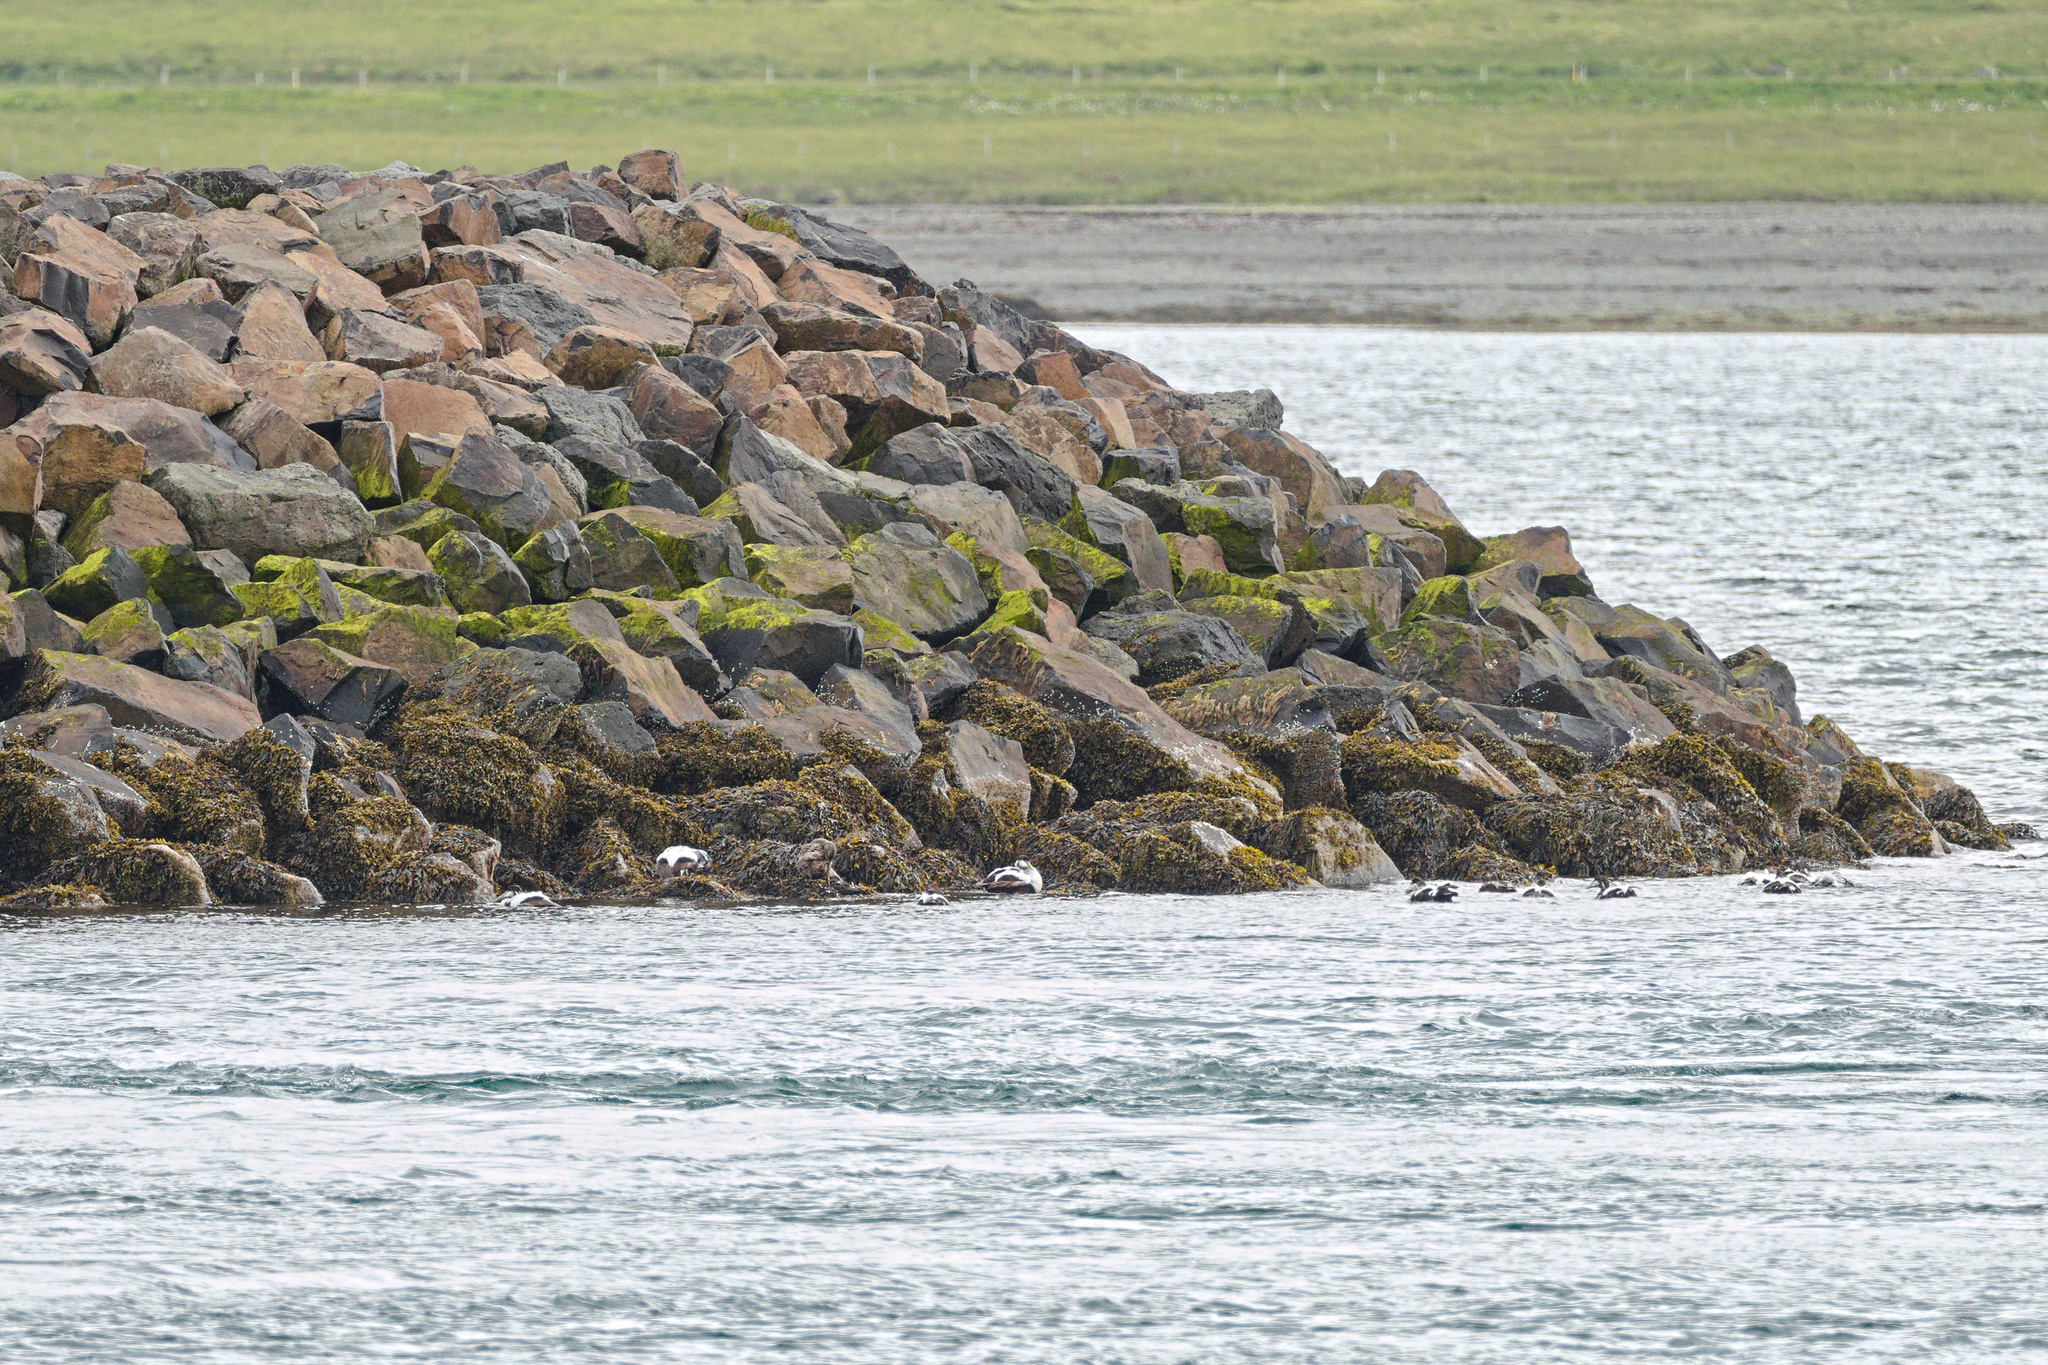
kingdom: Animalia
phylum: Chordata
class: Aves
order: Anseriformes
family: Anatidae
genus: Somateria
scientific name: Somateria mollissima
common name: Common eider
